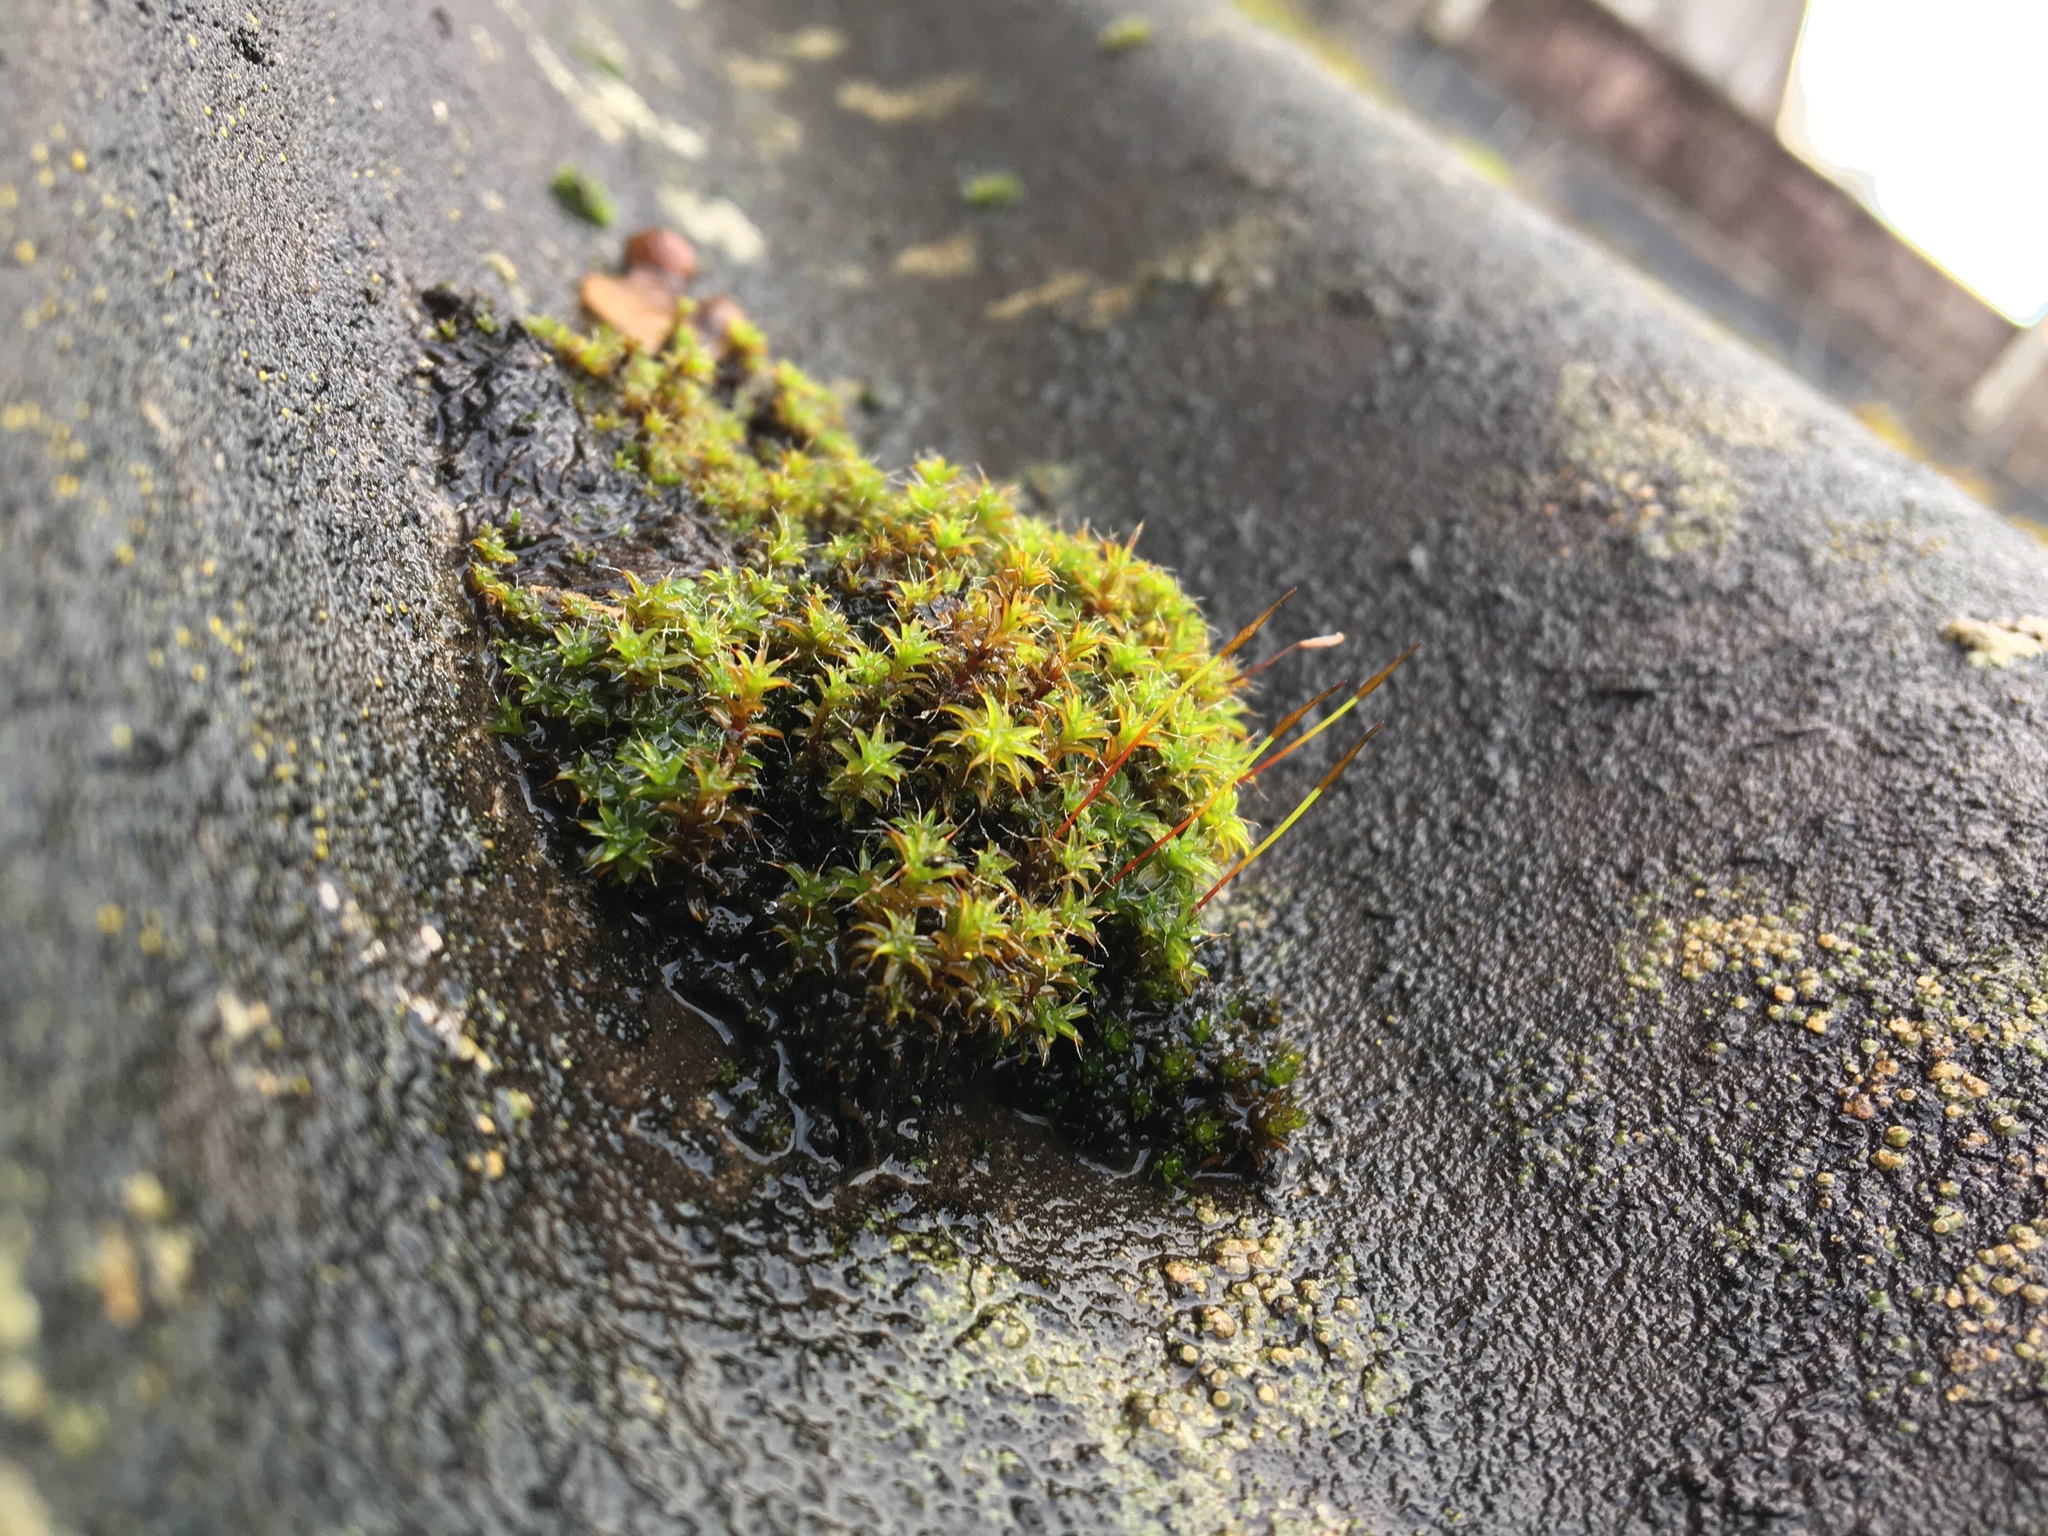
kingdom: Plantae
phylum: Bryophyta
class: Bryopsida
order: Pottiales
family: Pottiaceae
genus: Syntrichia
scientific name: Syntrichia ruralis
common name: Sidewalk screw moss
